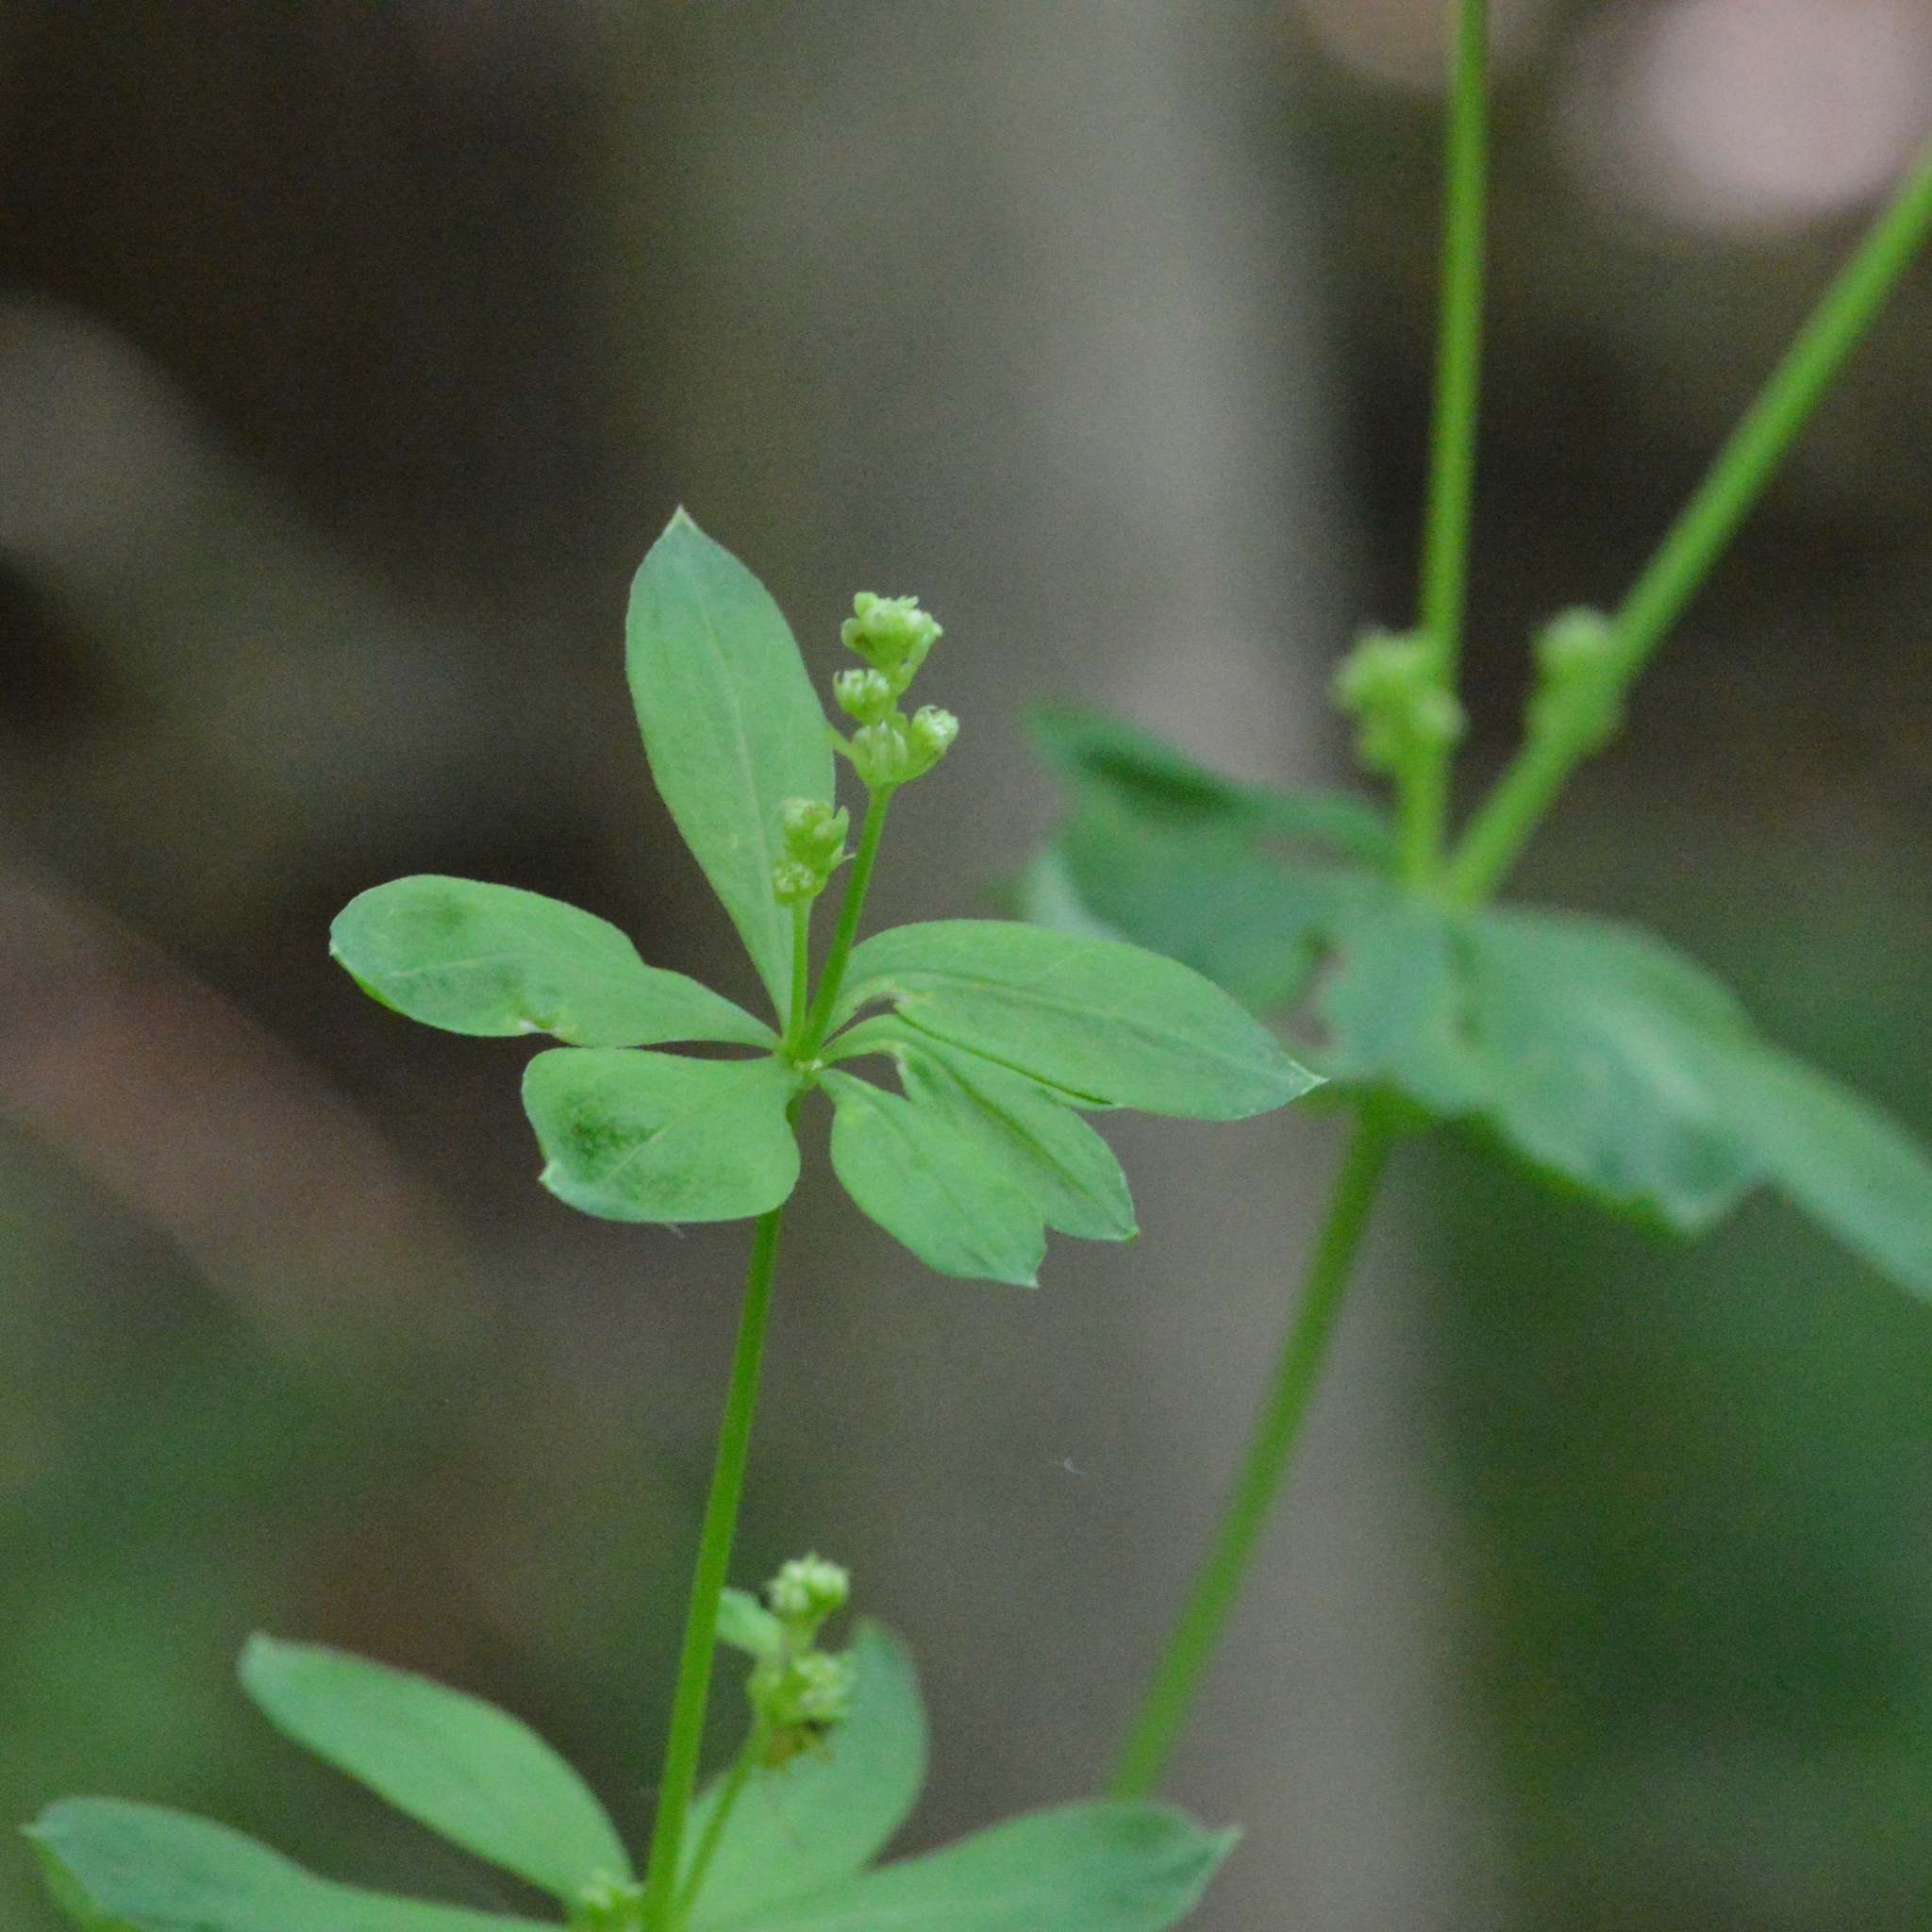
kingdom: Plantae
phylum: Tracheophyta
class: Magnoliopsida
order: Gentianales
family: Rubiaceae
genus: Galium
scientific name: Galium sylvaticum
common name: Wood bedstraw
